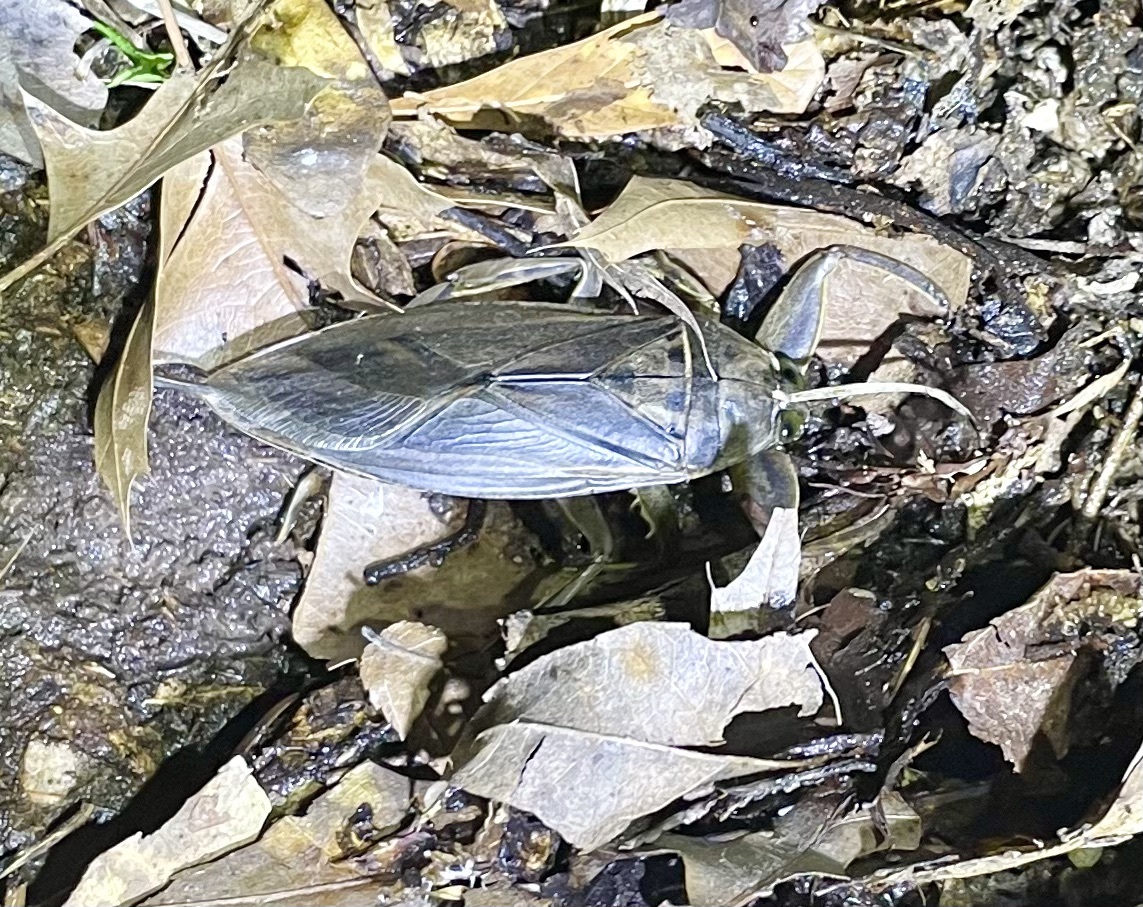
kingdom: Animalia
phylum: Arthropoda
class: Insecta
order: Hemiptera
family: Belostomatidae
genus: Lethocerus
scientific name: Lethocerus uhleri
